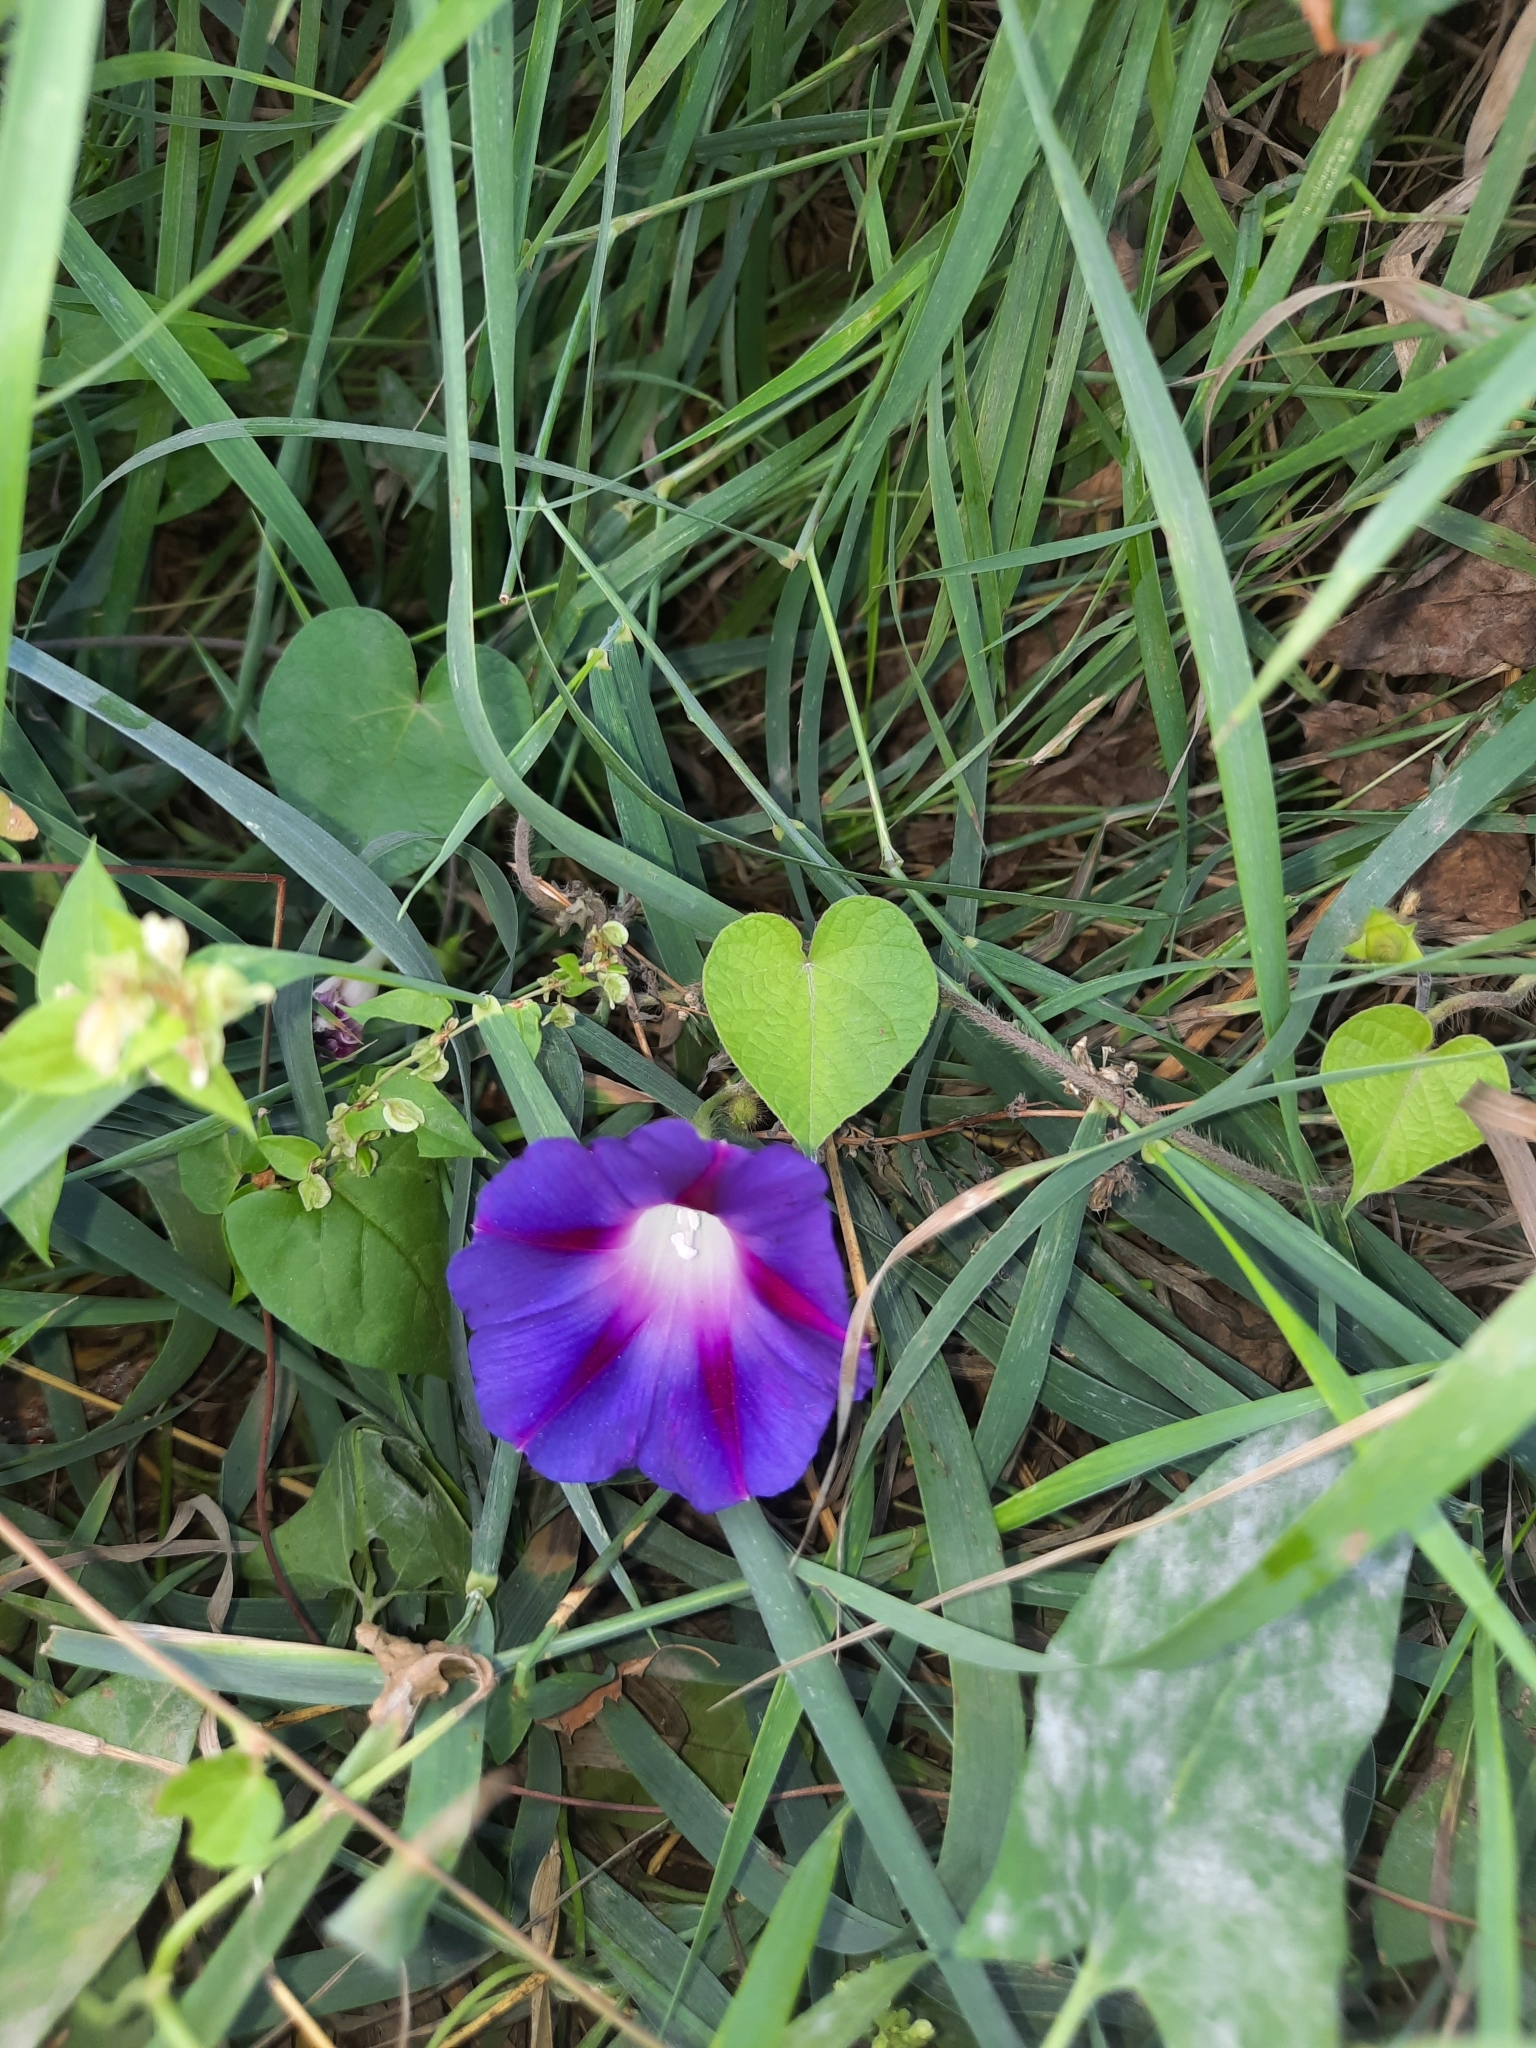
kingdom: Plantae
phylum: Tracheophyta
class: Magnoliopsida
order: Solanales
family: Convolvulaceae
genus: Ipomoea
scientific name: Ipomoea purpurea
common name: Common morning-glory
